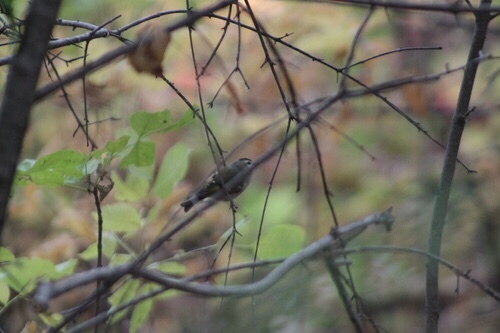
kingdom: Animalia
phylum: Chordata
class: Aves
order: Passeriformes
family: Regulidae
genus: Regulus
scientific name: Regulus satrapa
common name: Golden-crowned kinglet
